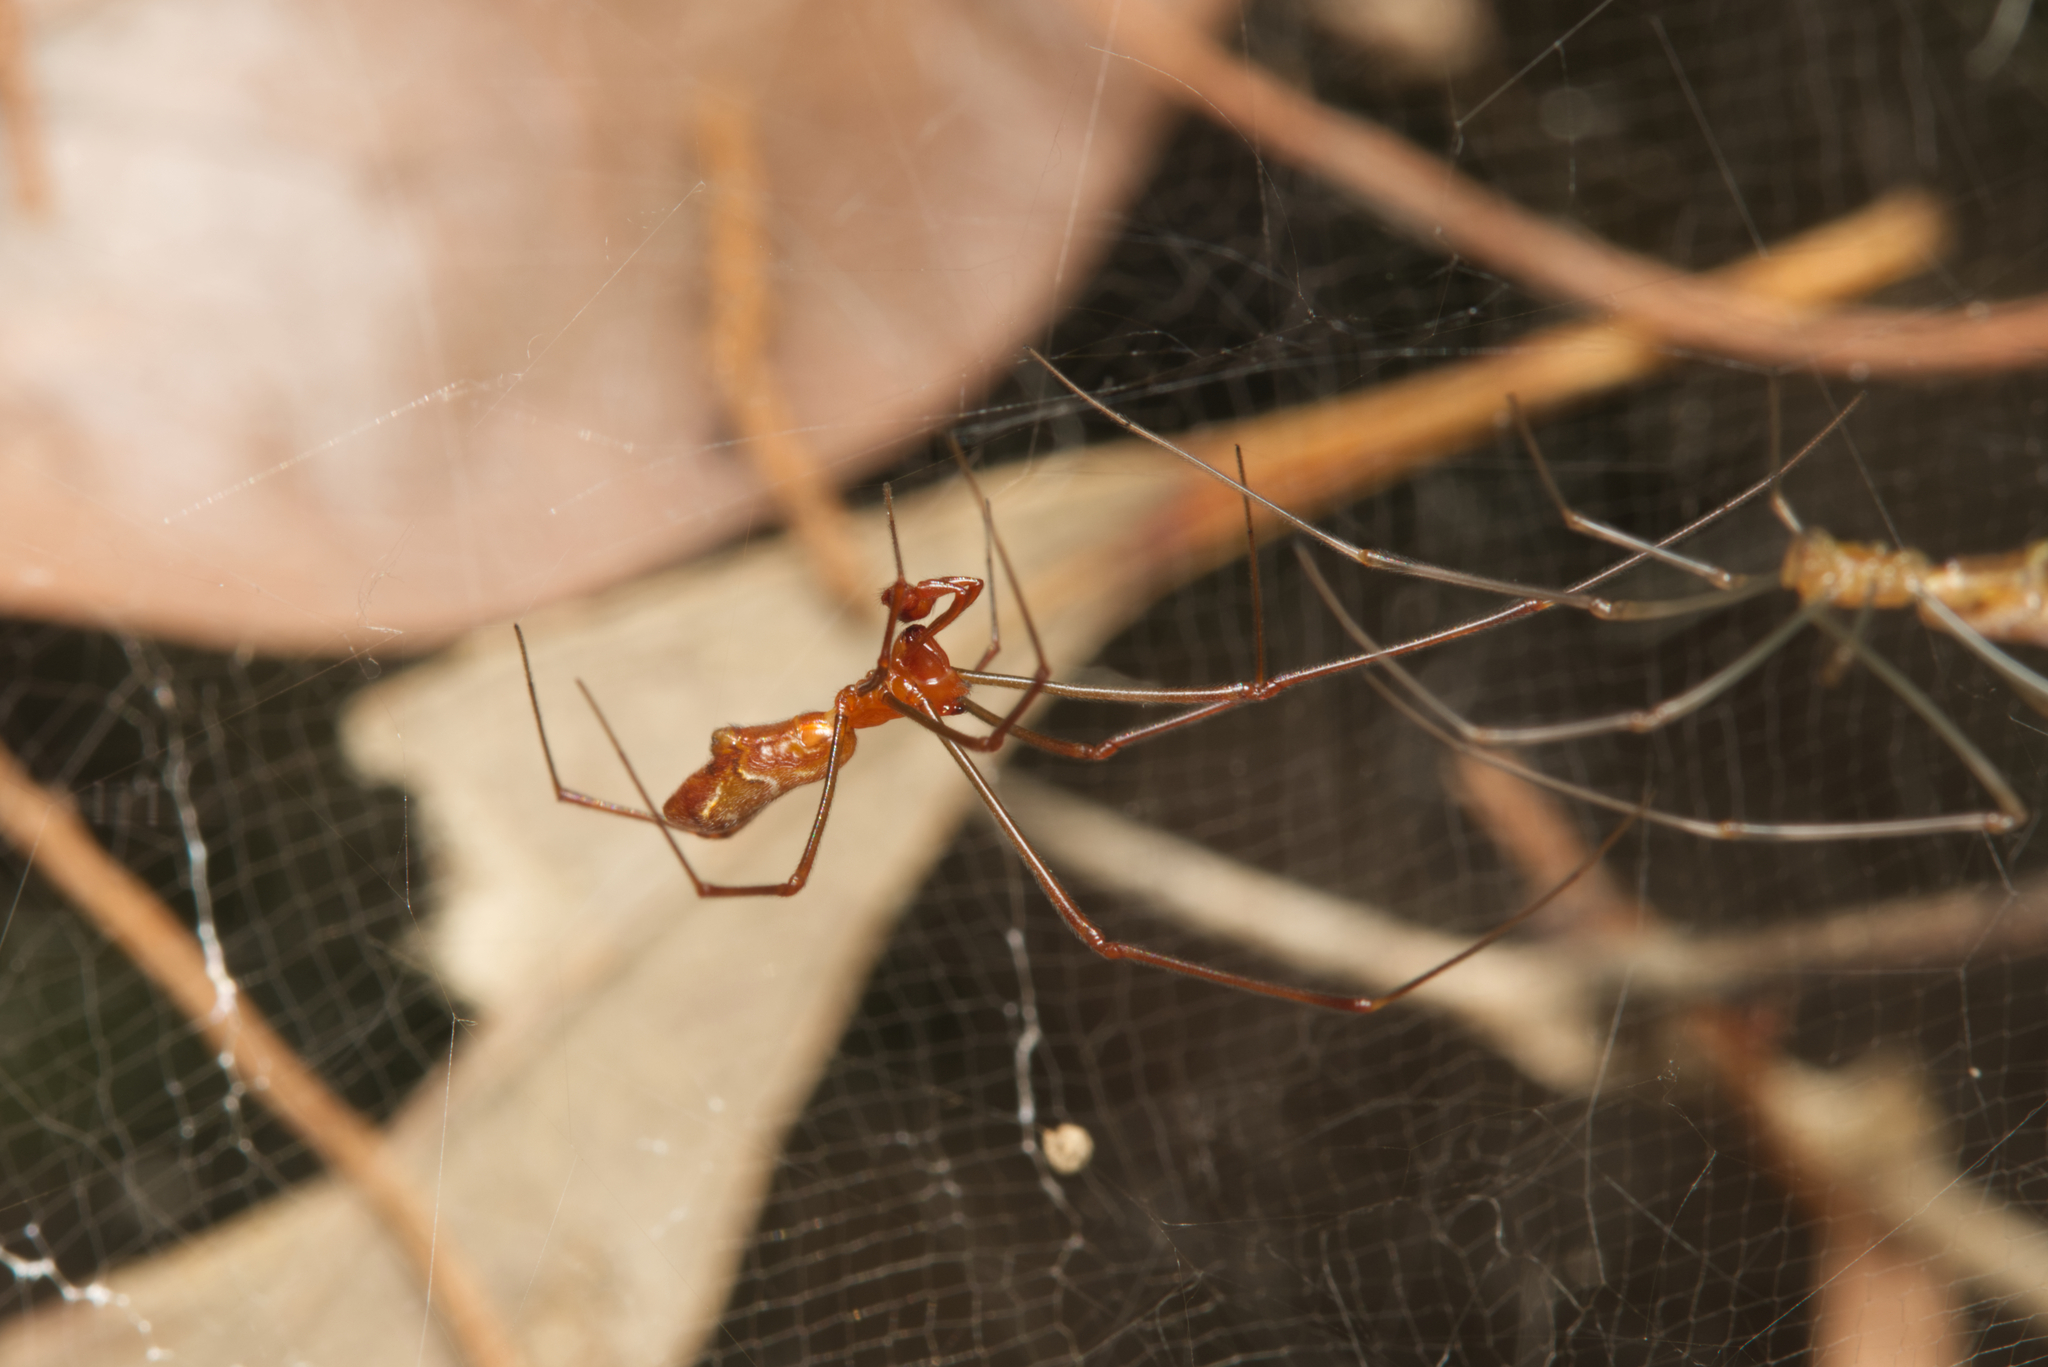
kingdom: Animalia
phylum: Arthropoda
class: Arachnida
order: Araneae
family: Theridiidae
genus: Argyrodes
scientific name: Argyrodes fissifrons
